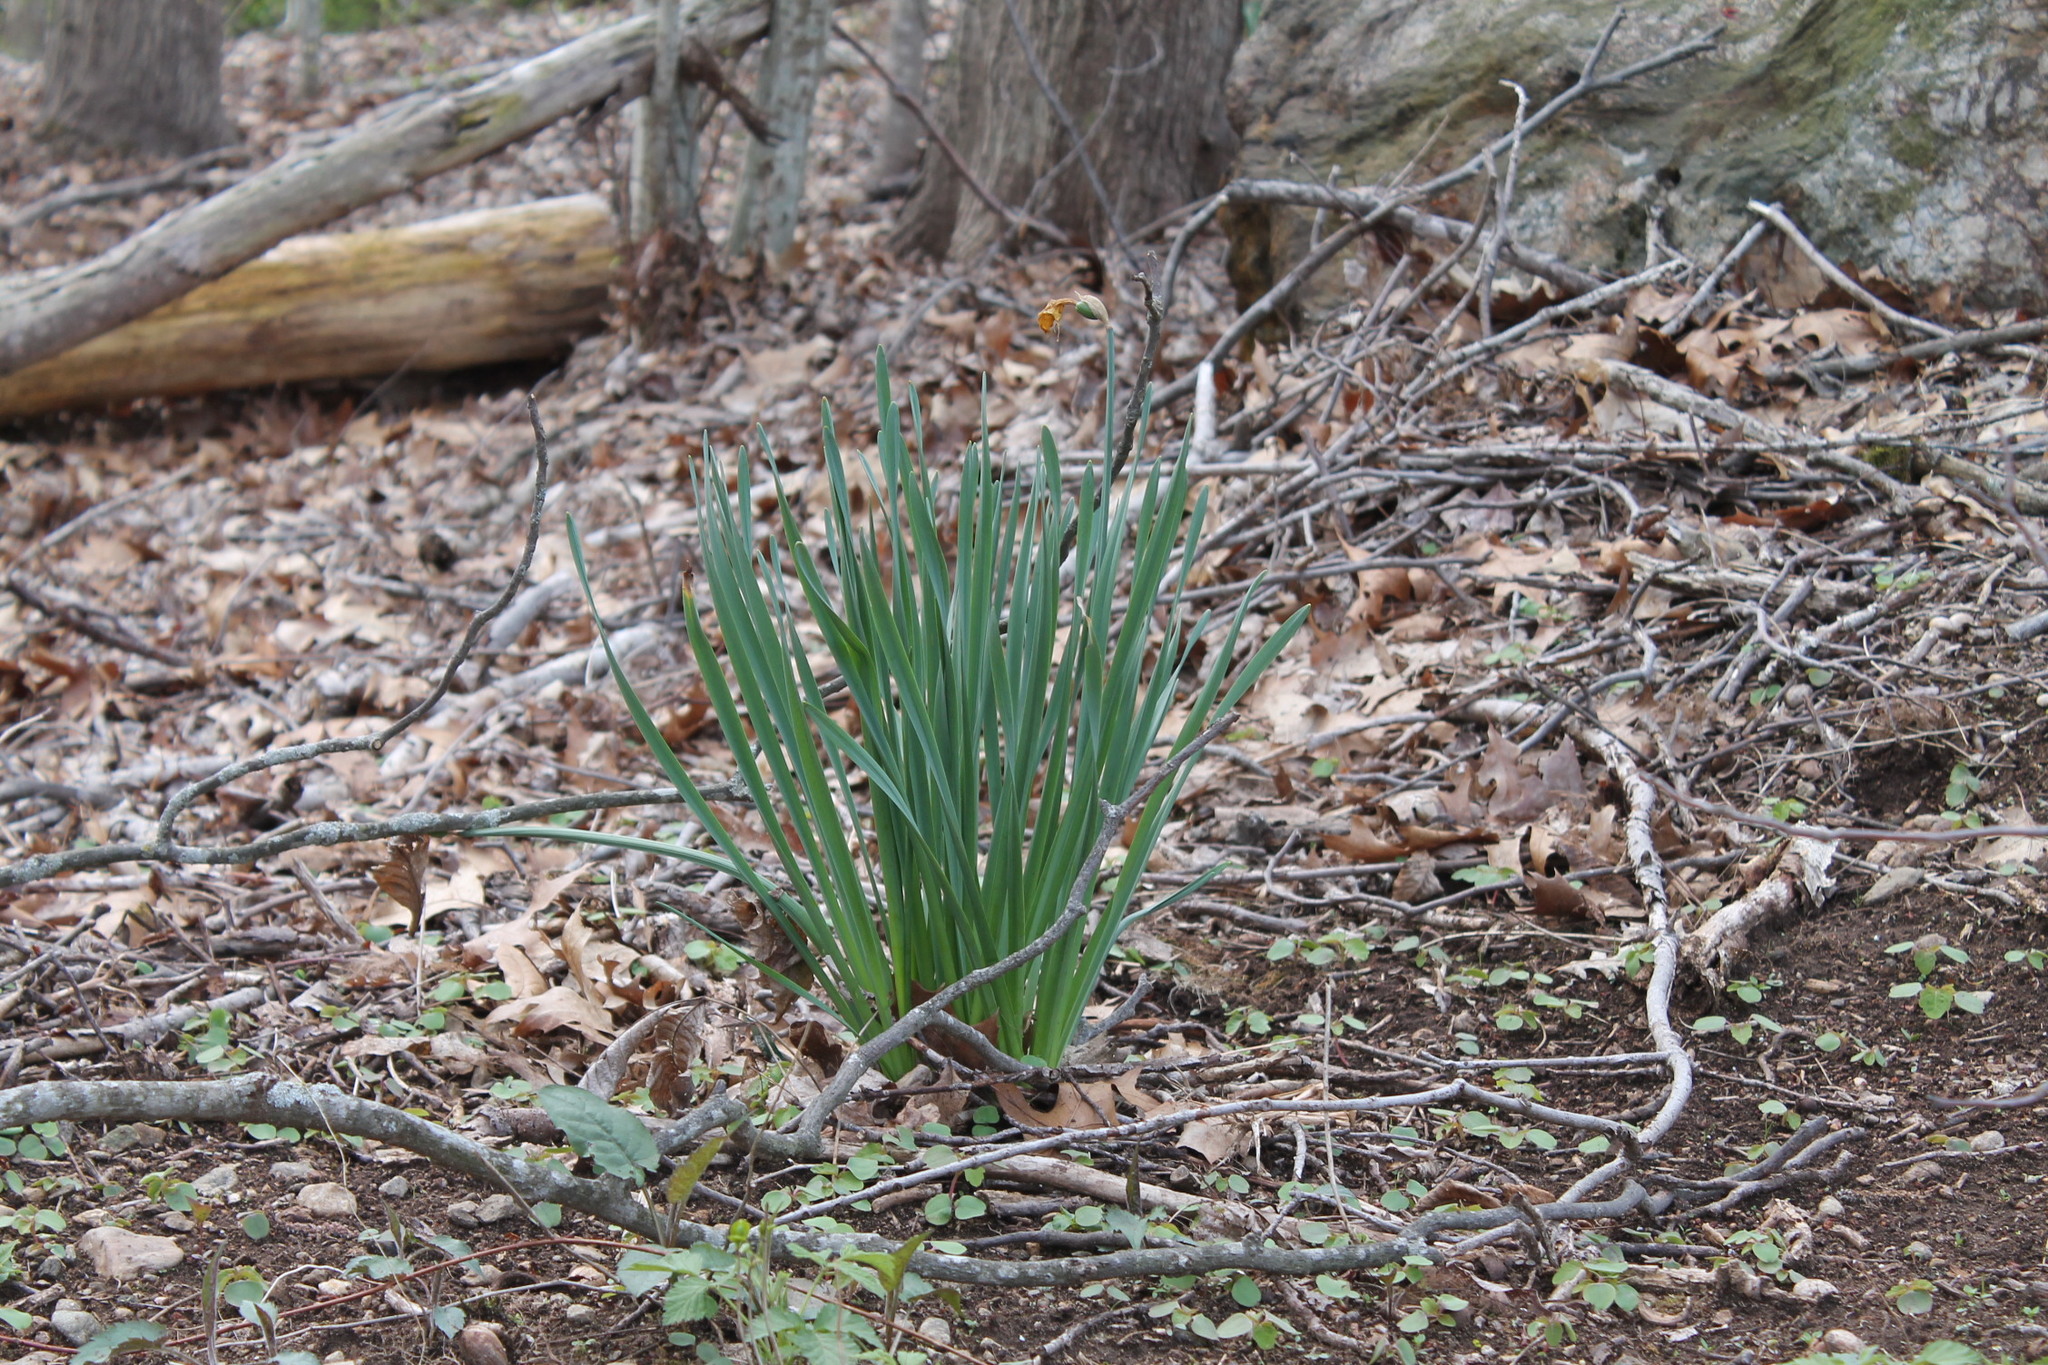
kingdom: Plantae
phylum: Tracheophyta
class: Liliopsida
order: Asparagales
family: Amaryllidaceae
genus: Narcissus
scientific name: Narcissus
